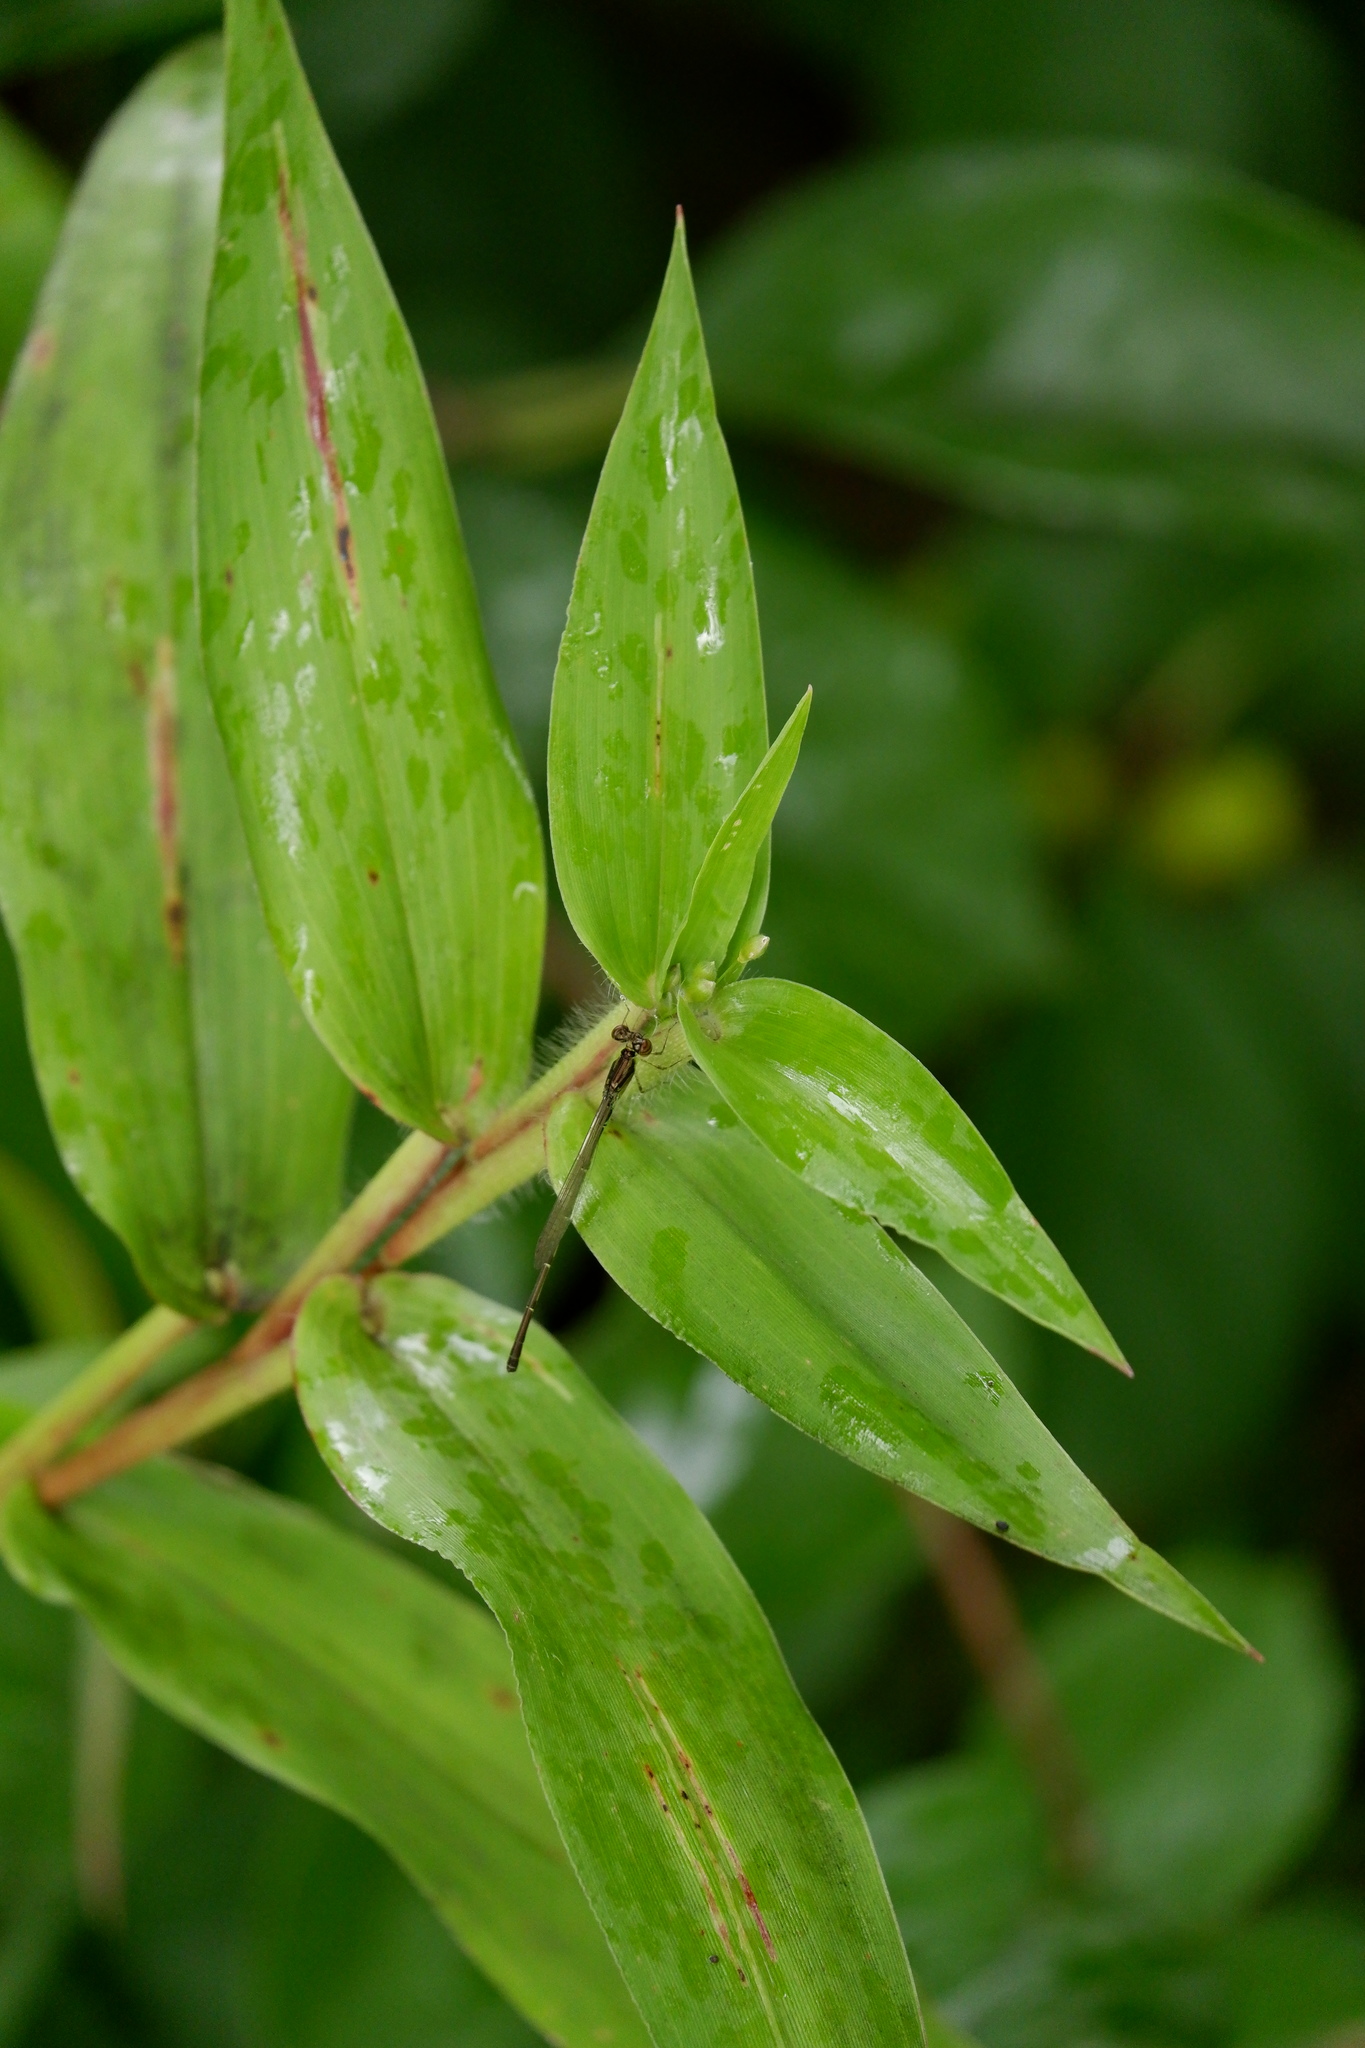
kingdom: Animalia
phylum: Arthropoda
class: Insecta
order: Odonata
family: Coenagrionidae
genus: Ischnura
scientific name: Ischnura posita
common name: Fragile forktail
